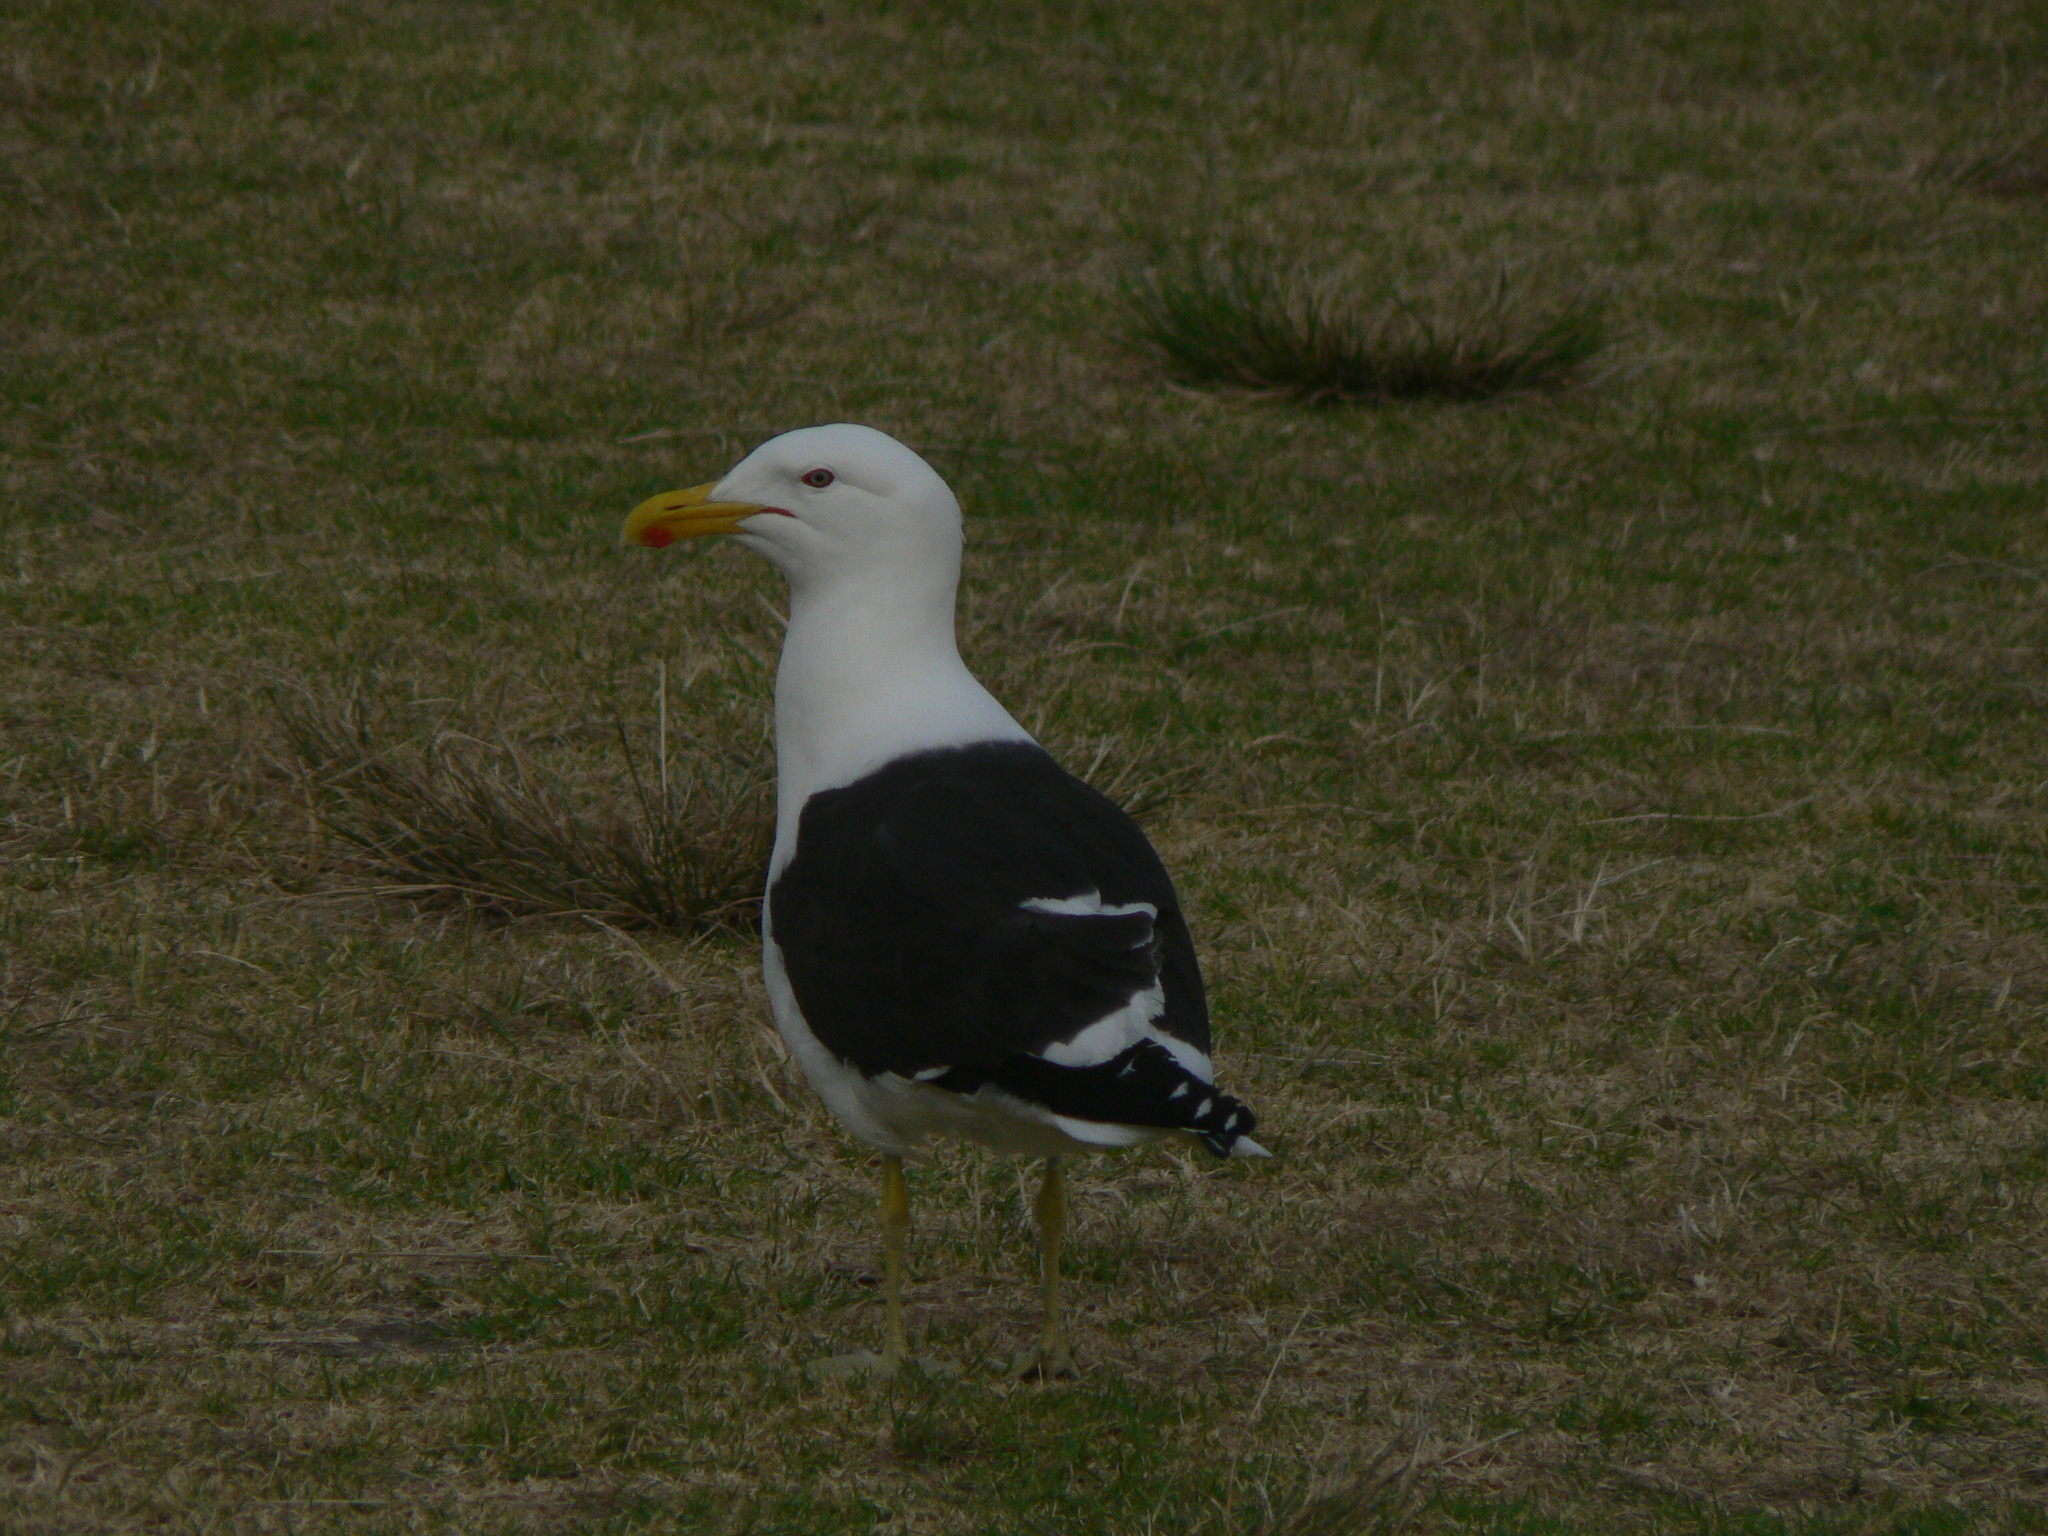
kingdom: Animalia
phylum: Chordata
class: Aves
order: Charadriiformes
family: Laridae
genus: Larus
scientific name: Larus dominicanus
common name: Kelp gull
